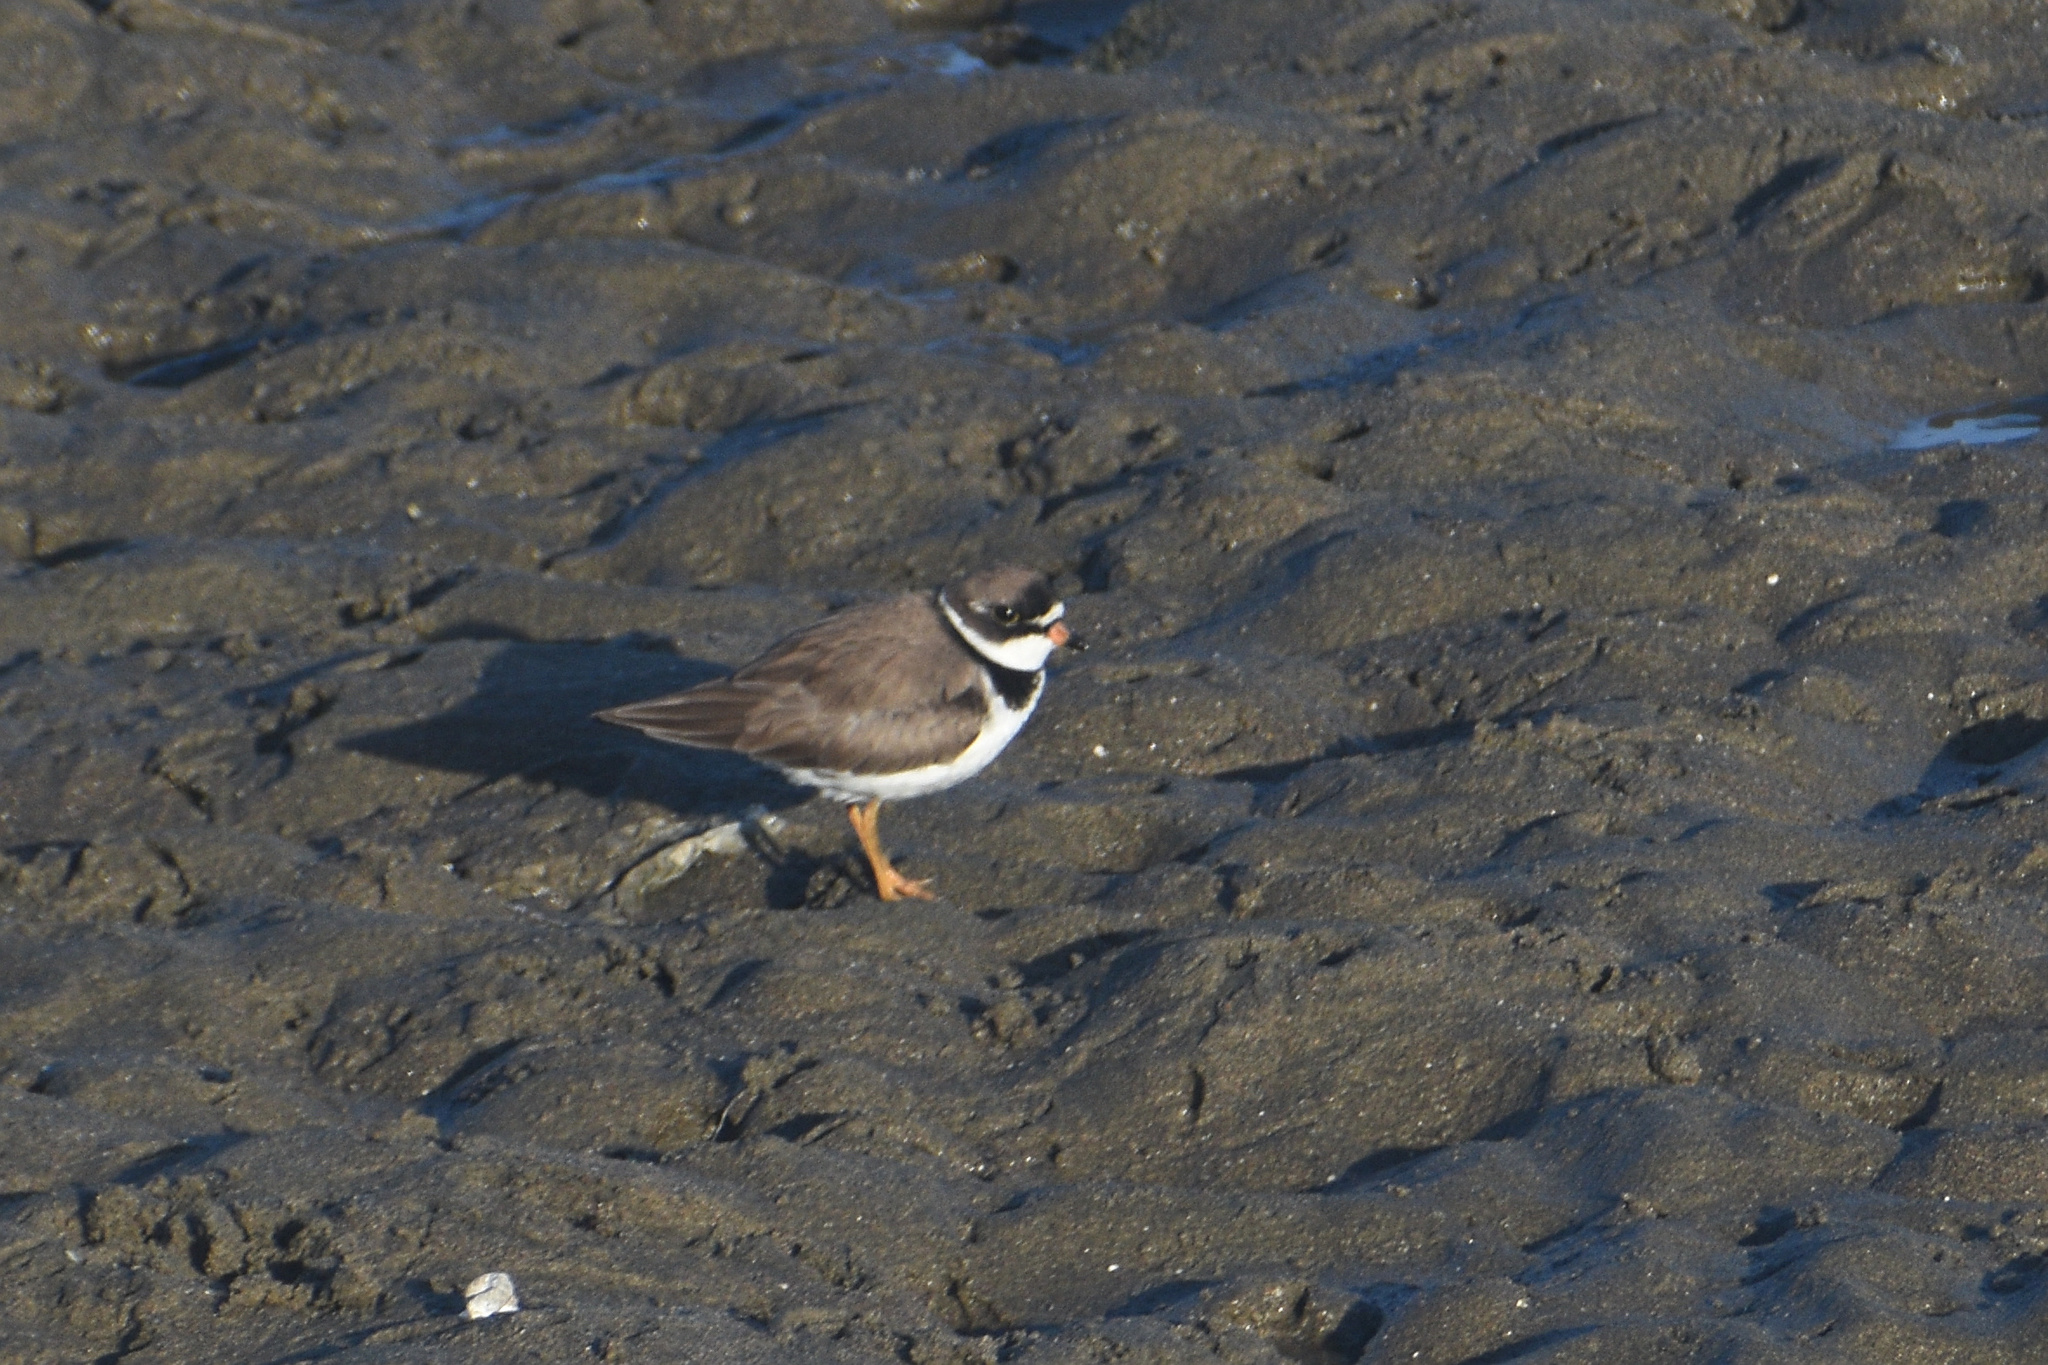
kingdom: Animalia
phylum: Chordata
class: Aves
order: Charadriiformes
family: Charadriidae
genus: Charadrius
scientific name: Charadrius semipalmatus
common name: Semipalmated plover
